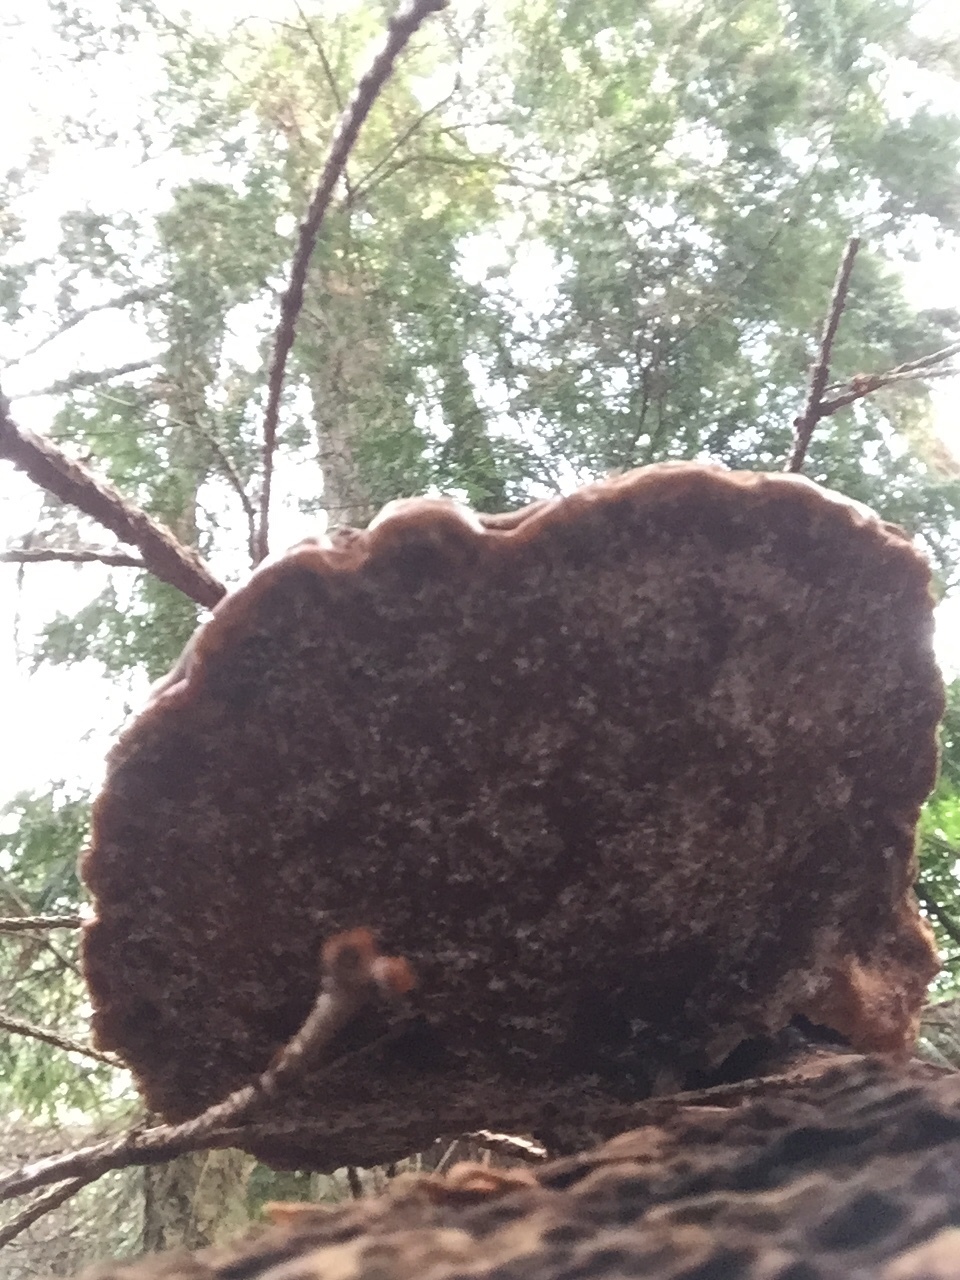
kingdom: Fungi
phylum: Basidiomycota
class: Agaricomycetes
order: Polyporales
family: Polyporaceae
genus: Ganoderma
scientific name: Ganoderma oregonense
